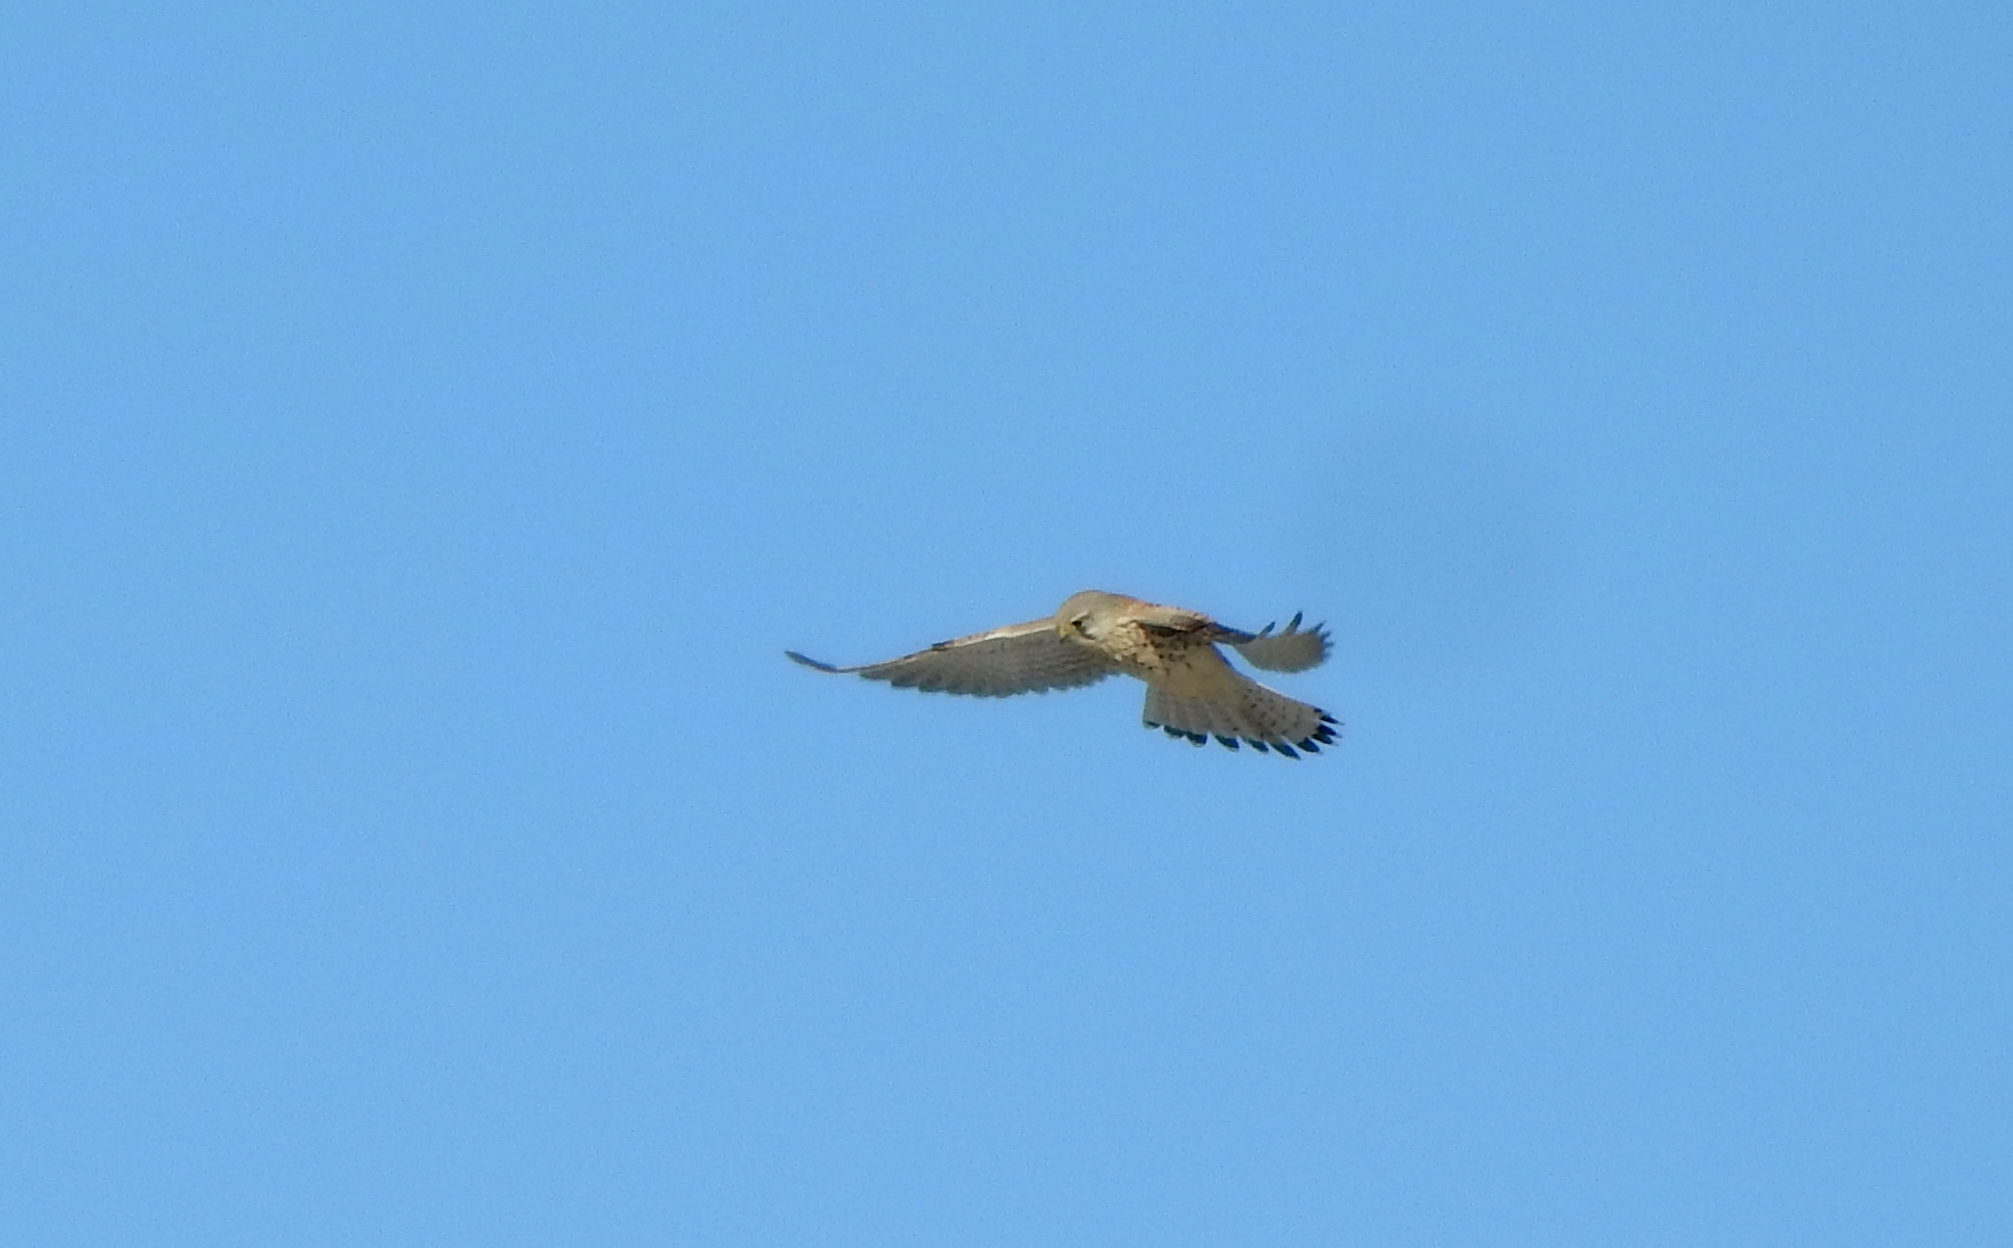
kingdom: Animalia
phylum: Chordata
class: Aves
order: Falconiformes
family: Falconidae
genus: Falco
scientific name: Falco tinnunculus
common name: Common kestrel
